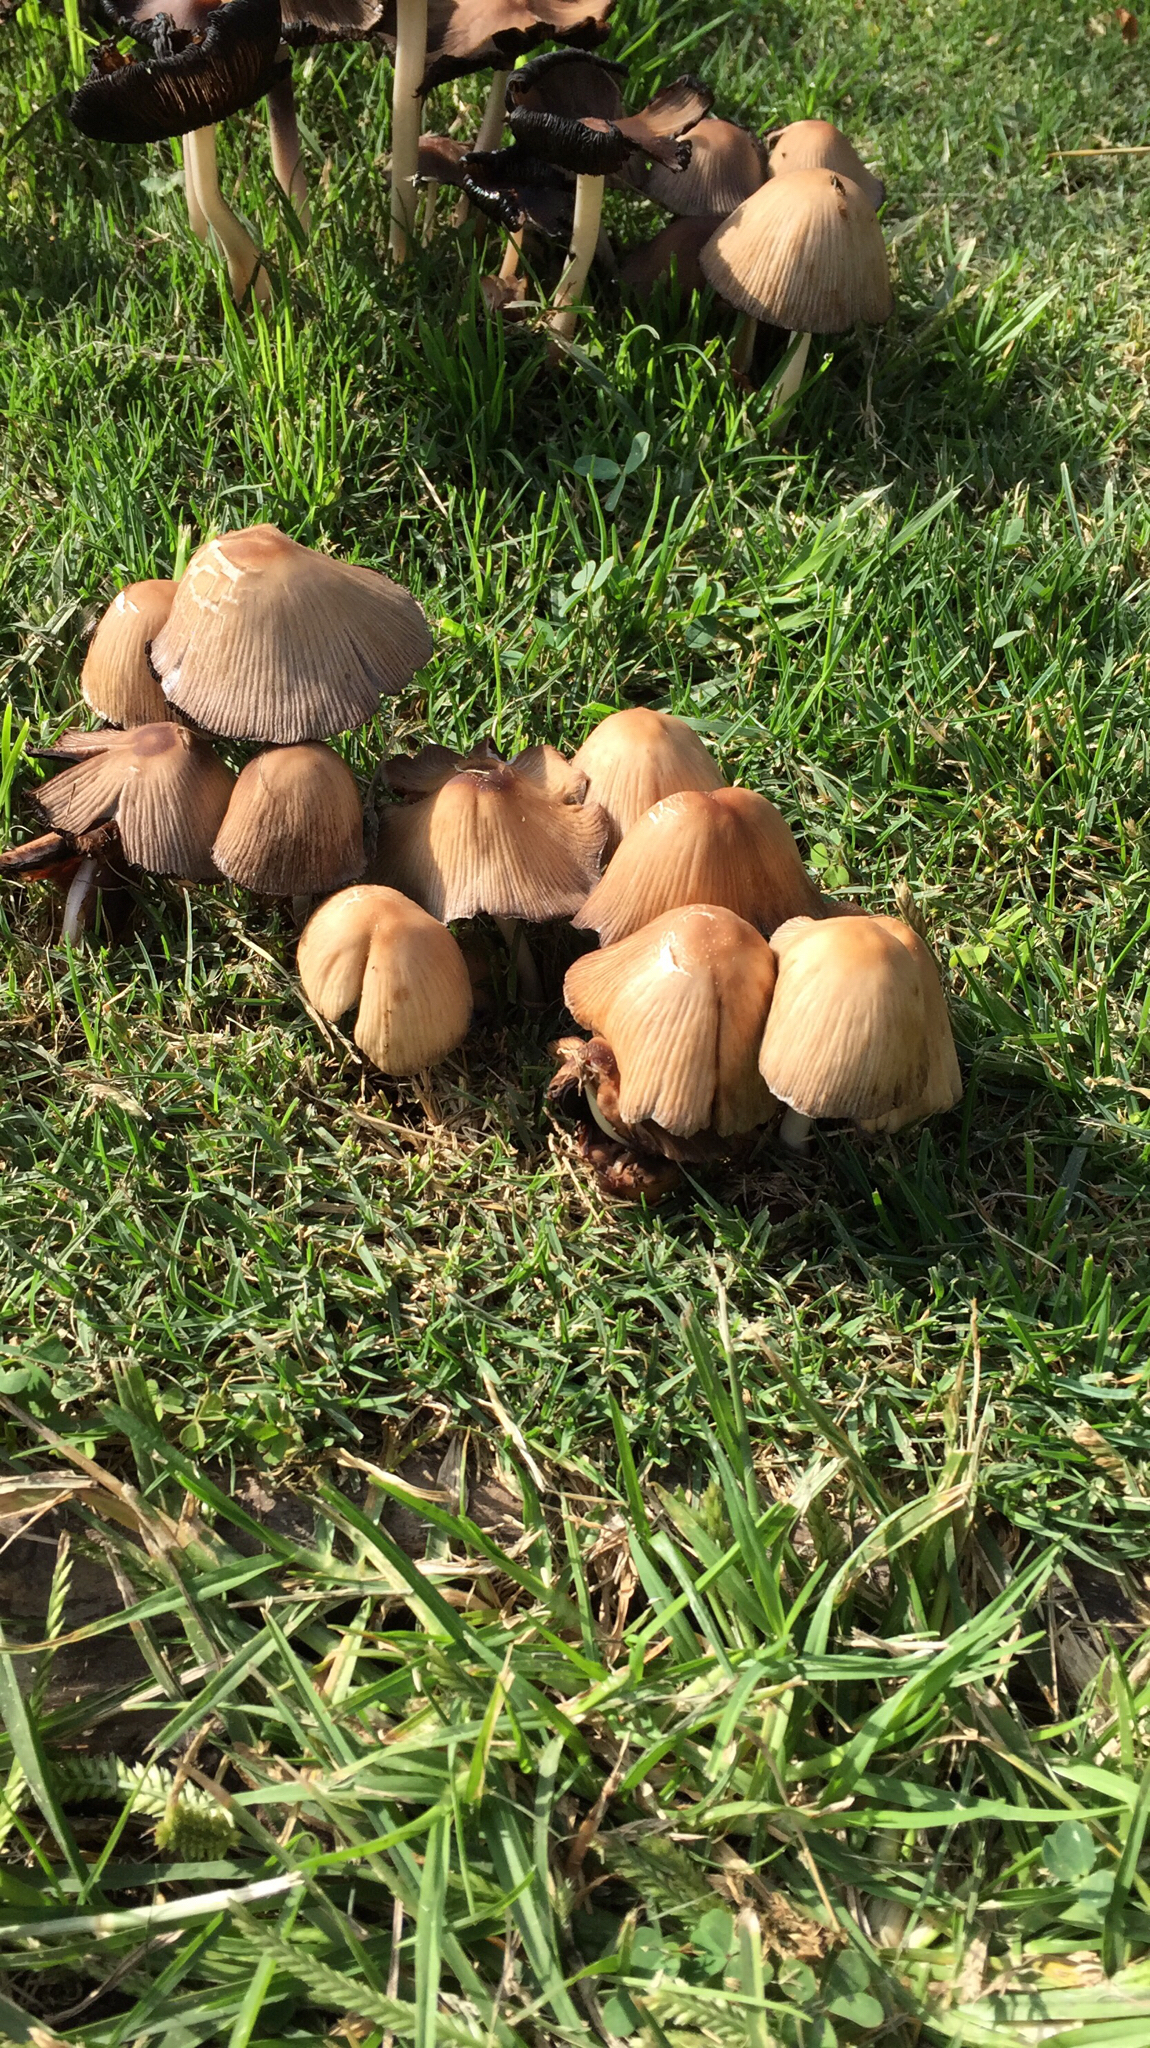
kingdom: Fungi
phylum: Basidiomycota
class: Agaricomycetes
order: Agaricales
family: Psathyrellaceae
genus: Coprinellus
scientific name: Coprinellus micaceus
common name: Glistening ink-cap
